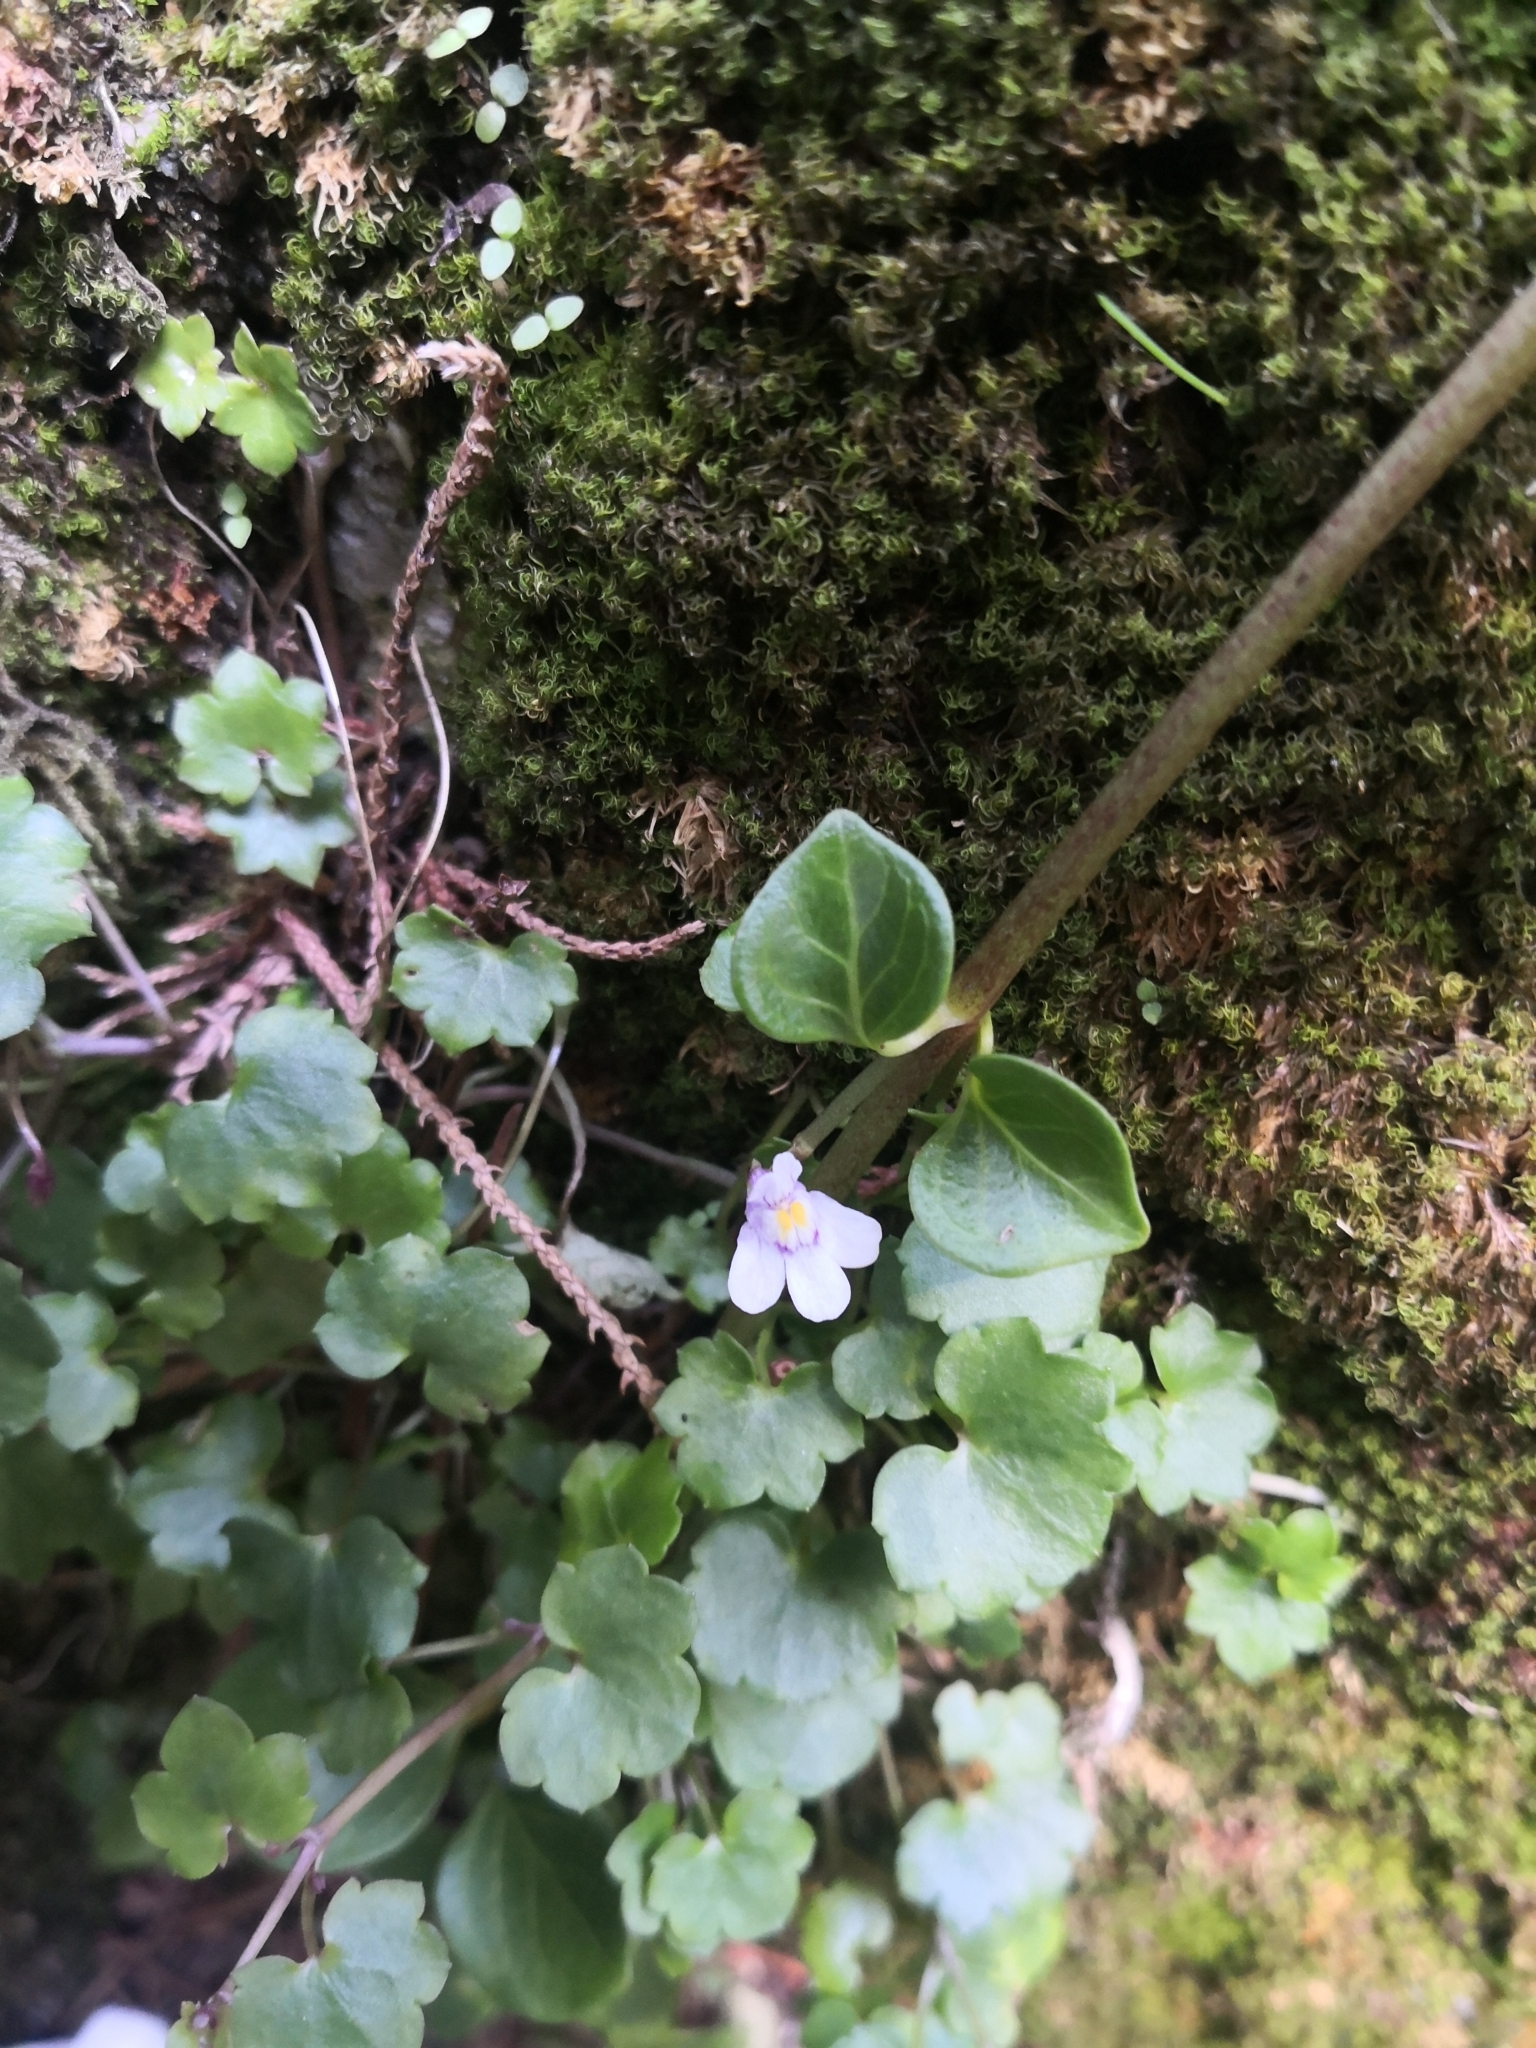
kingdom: Plantae
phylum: Tracheophyta
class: Magnoliopsida
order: Lamiales
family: Plantaginaceae
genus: Cymbalaria
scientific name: Cymbalaria muralis
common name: Ivy-leaved toadflax
